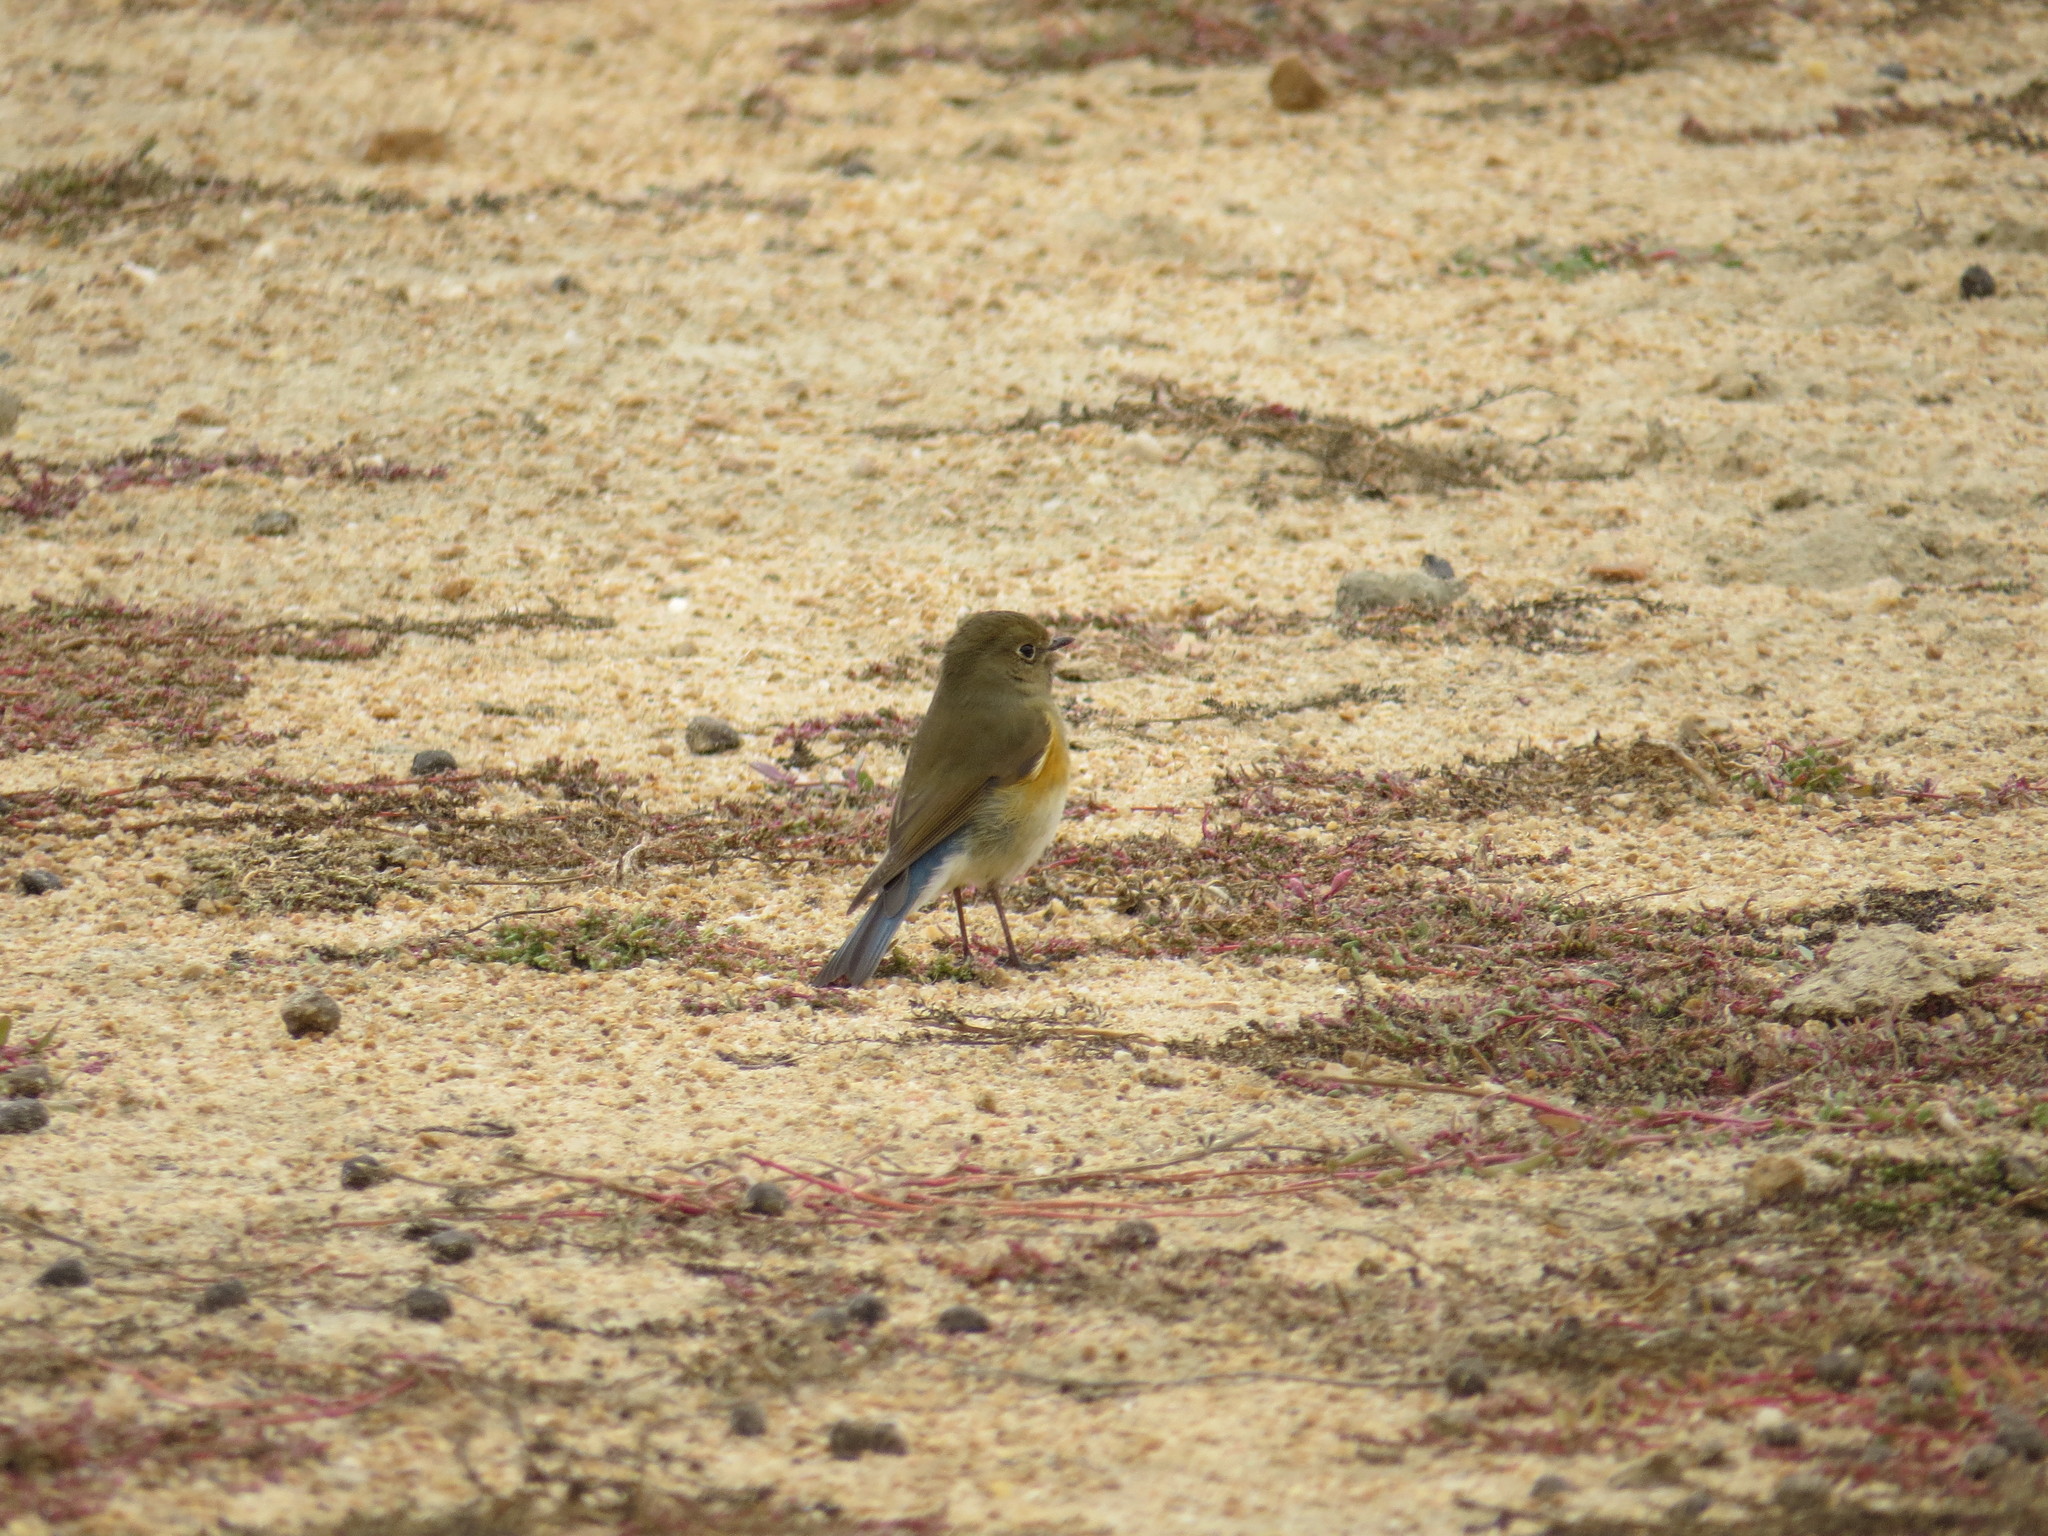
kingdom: Animalia
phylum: Chordata
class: Aves
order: Passeriformes
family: Muscicapidae
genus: Tarsiger
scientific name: Tarsiger cyanurus
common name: Red-flanked bluetail
